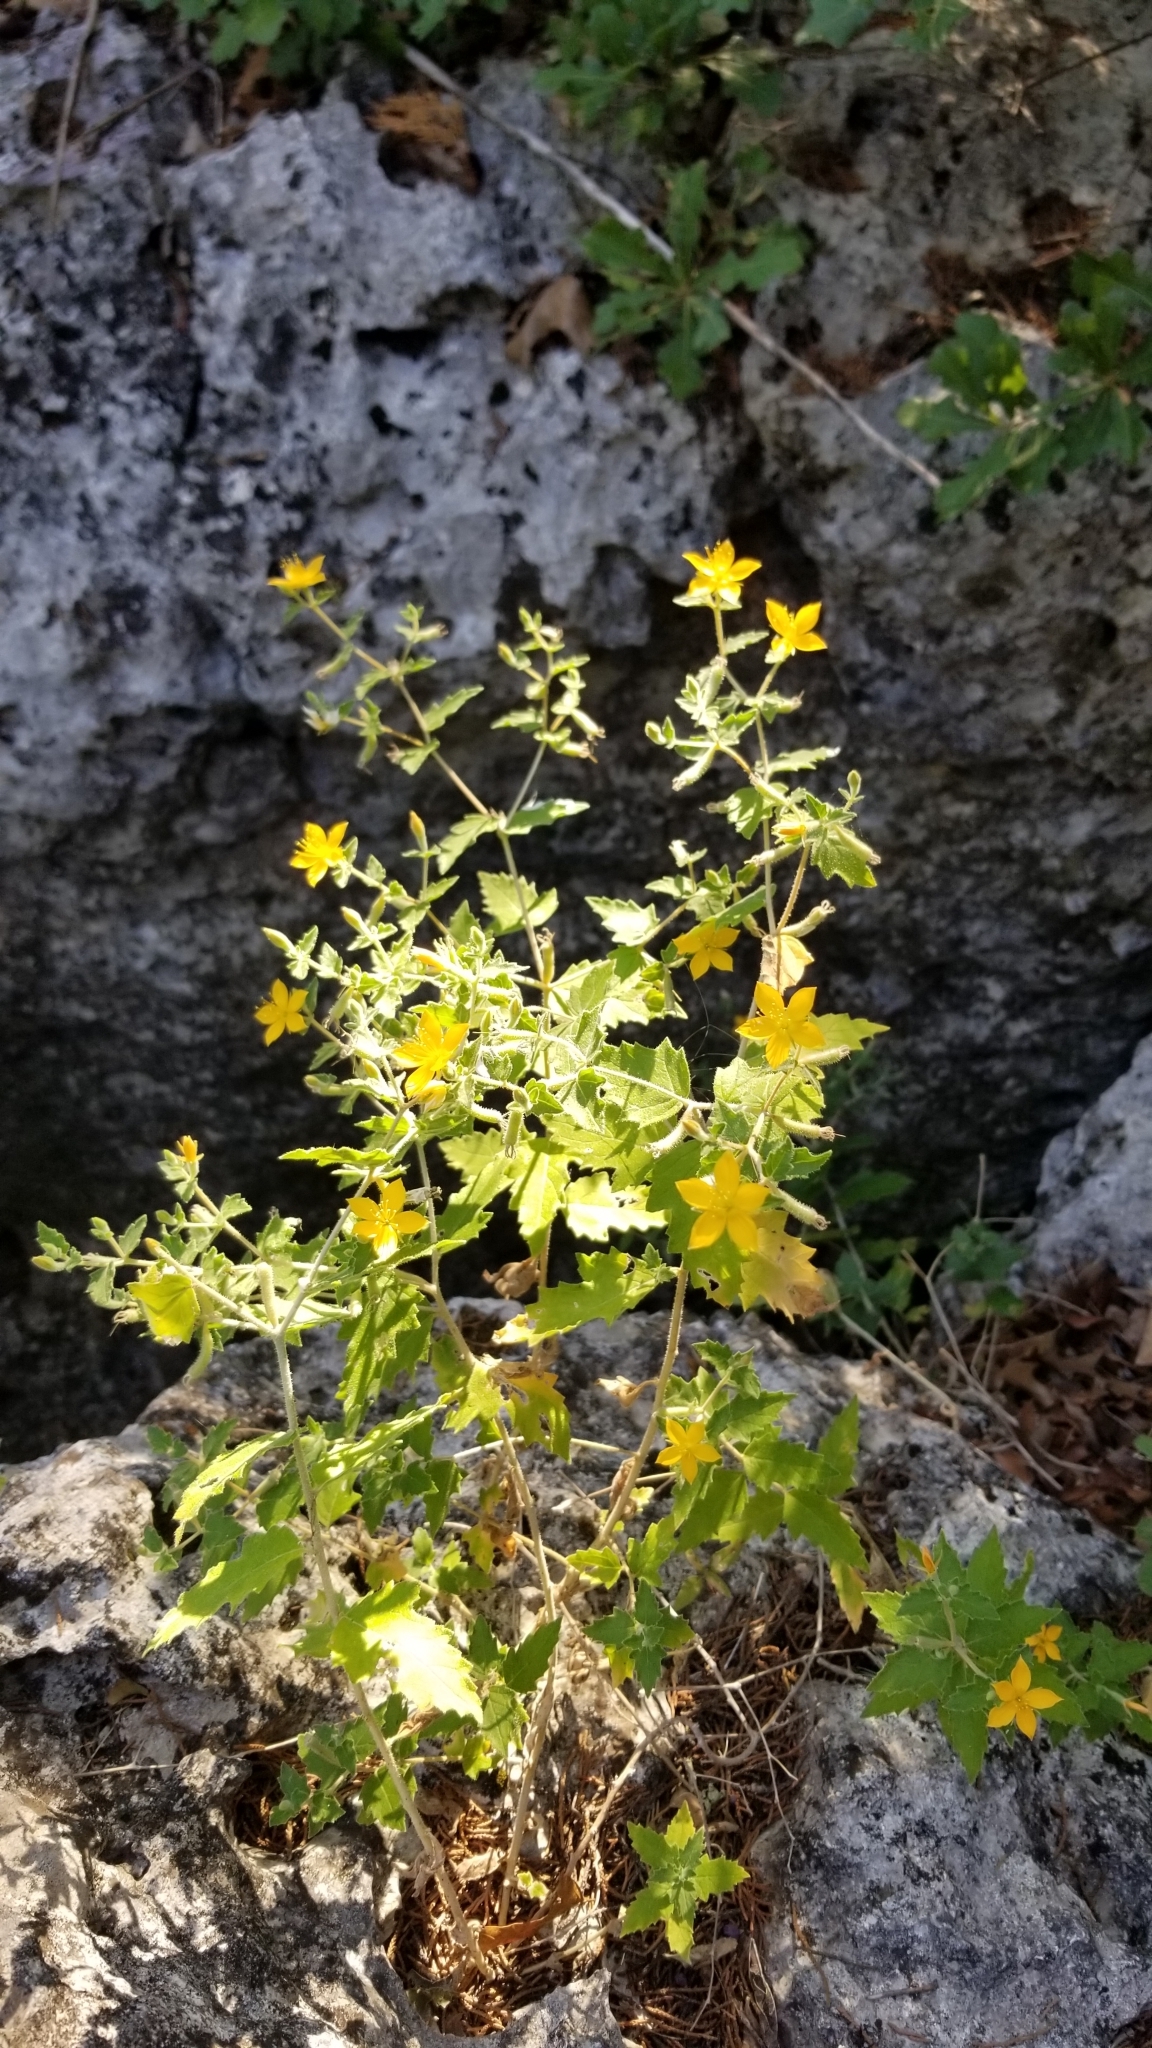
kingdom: Plantae
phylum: Tracheophyta
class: Magnoliopsida
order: Cornales
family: Loasaceae
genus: Mentzelia
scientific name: Mentzelia oligosperma
